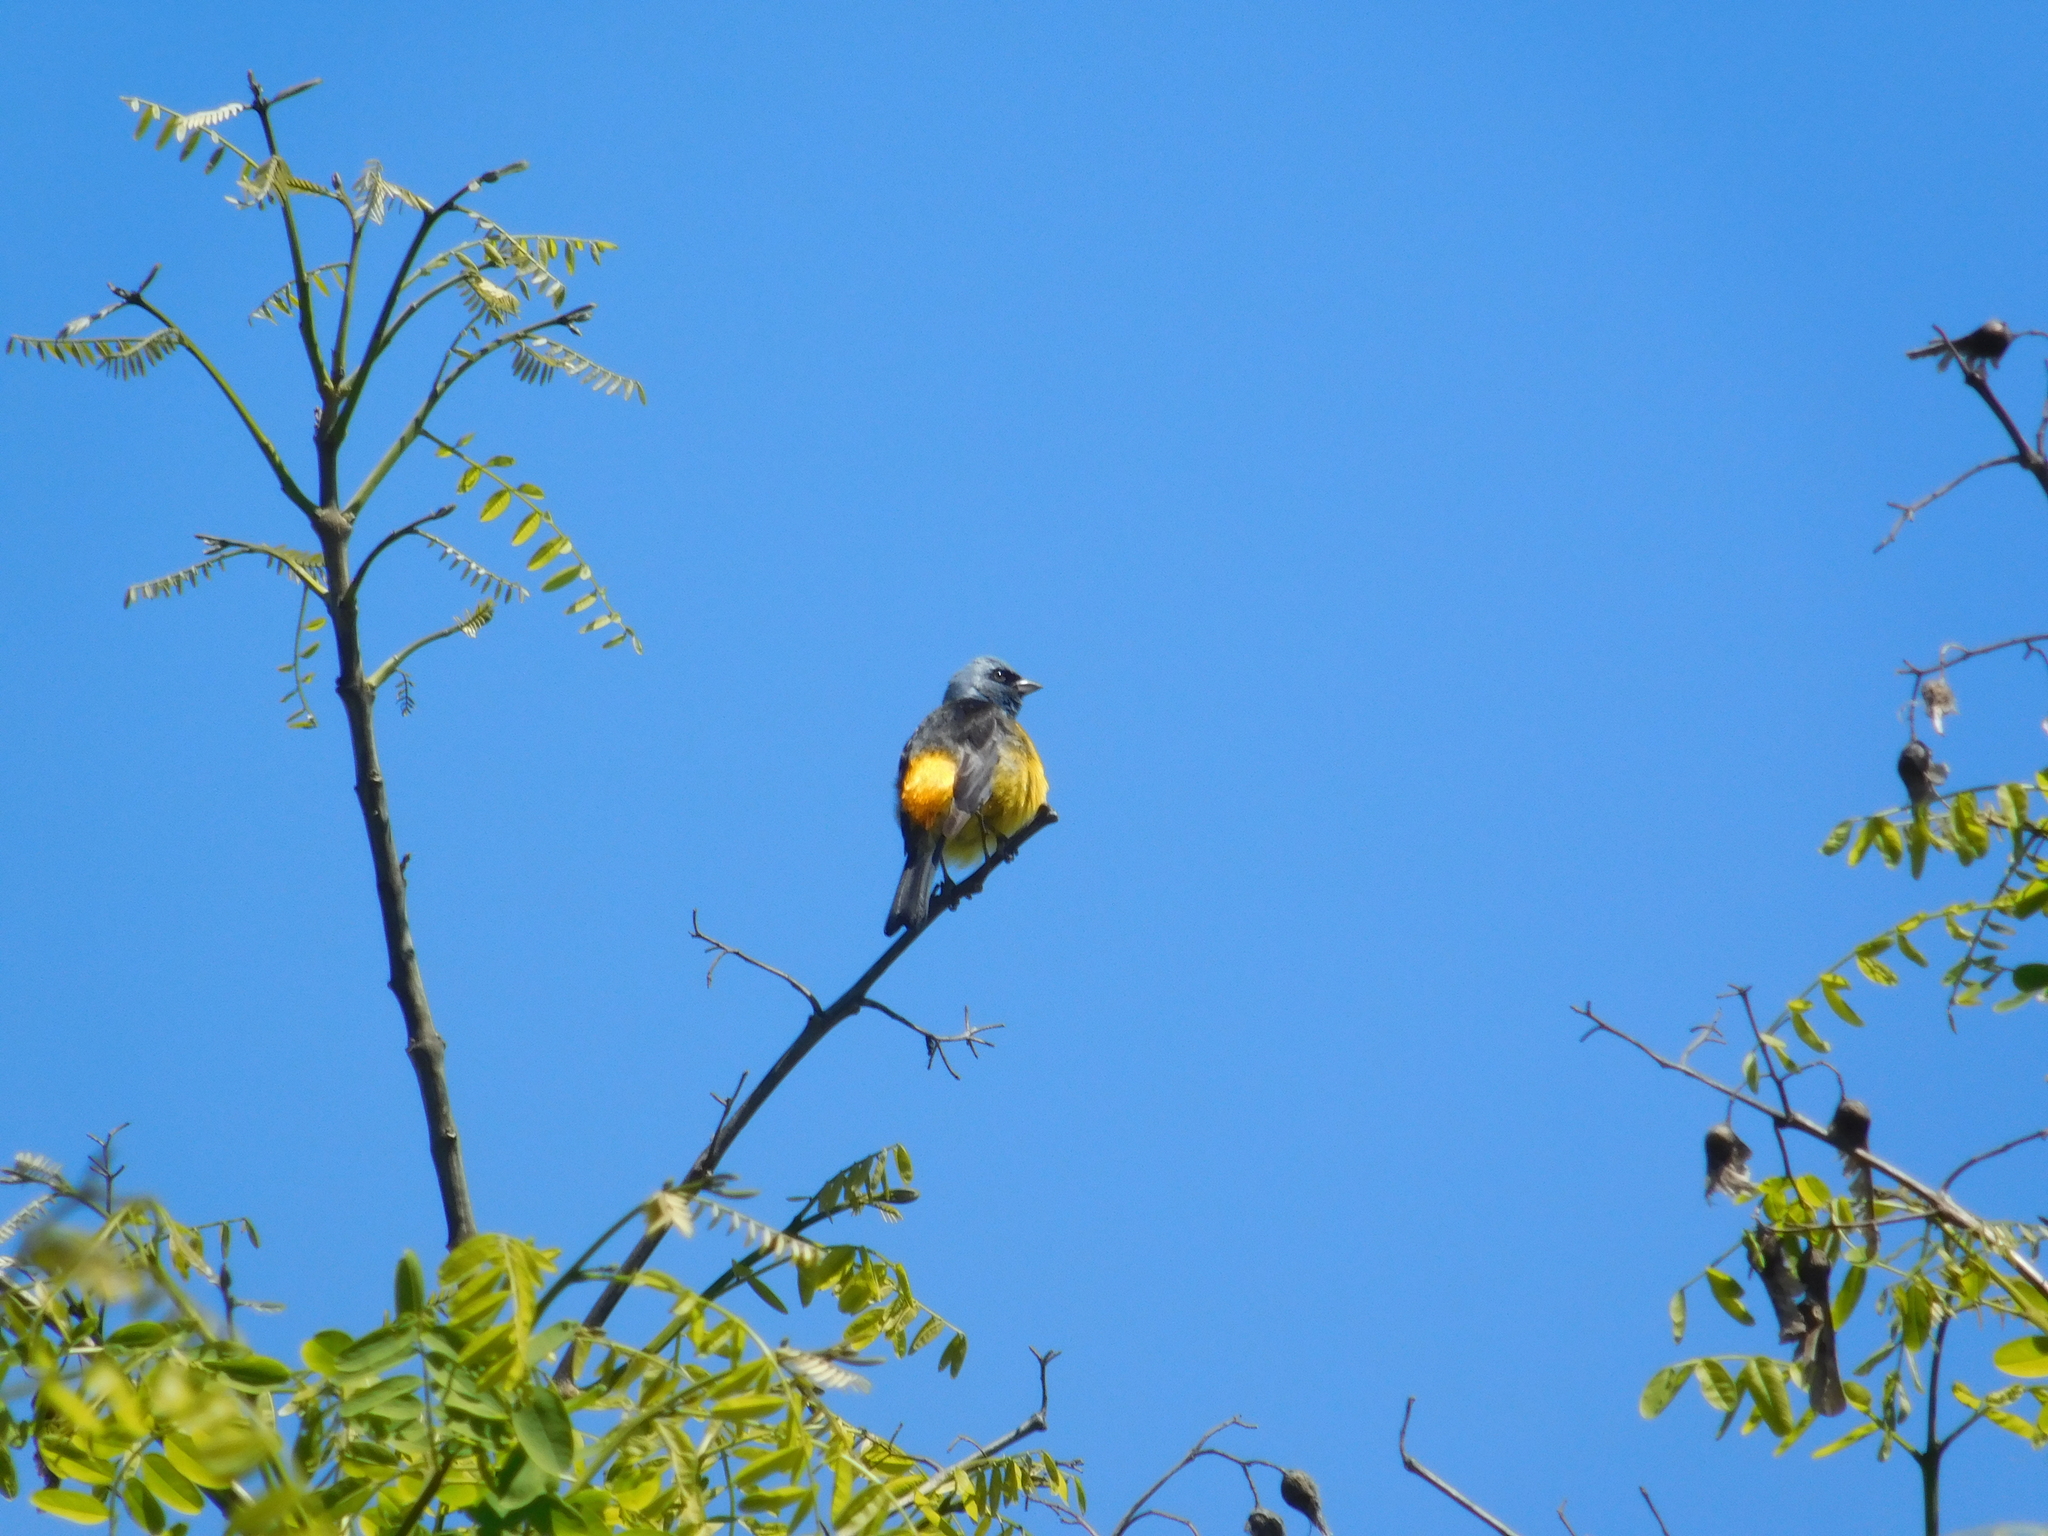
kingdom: Animalia
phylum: Chordata
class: Aves
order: Passeriformes
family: Thraupidae
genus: Rauenia
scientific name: Rauenia bonariensis
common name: Blue-and-yellow tanager
